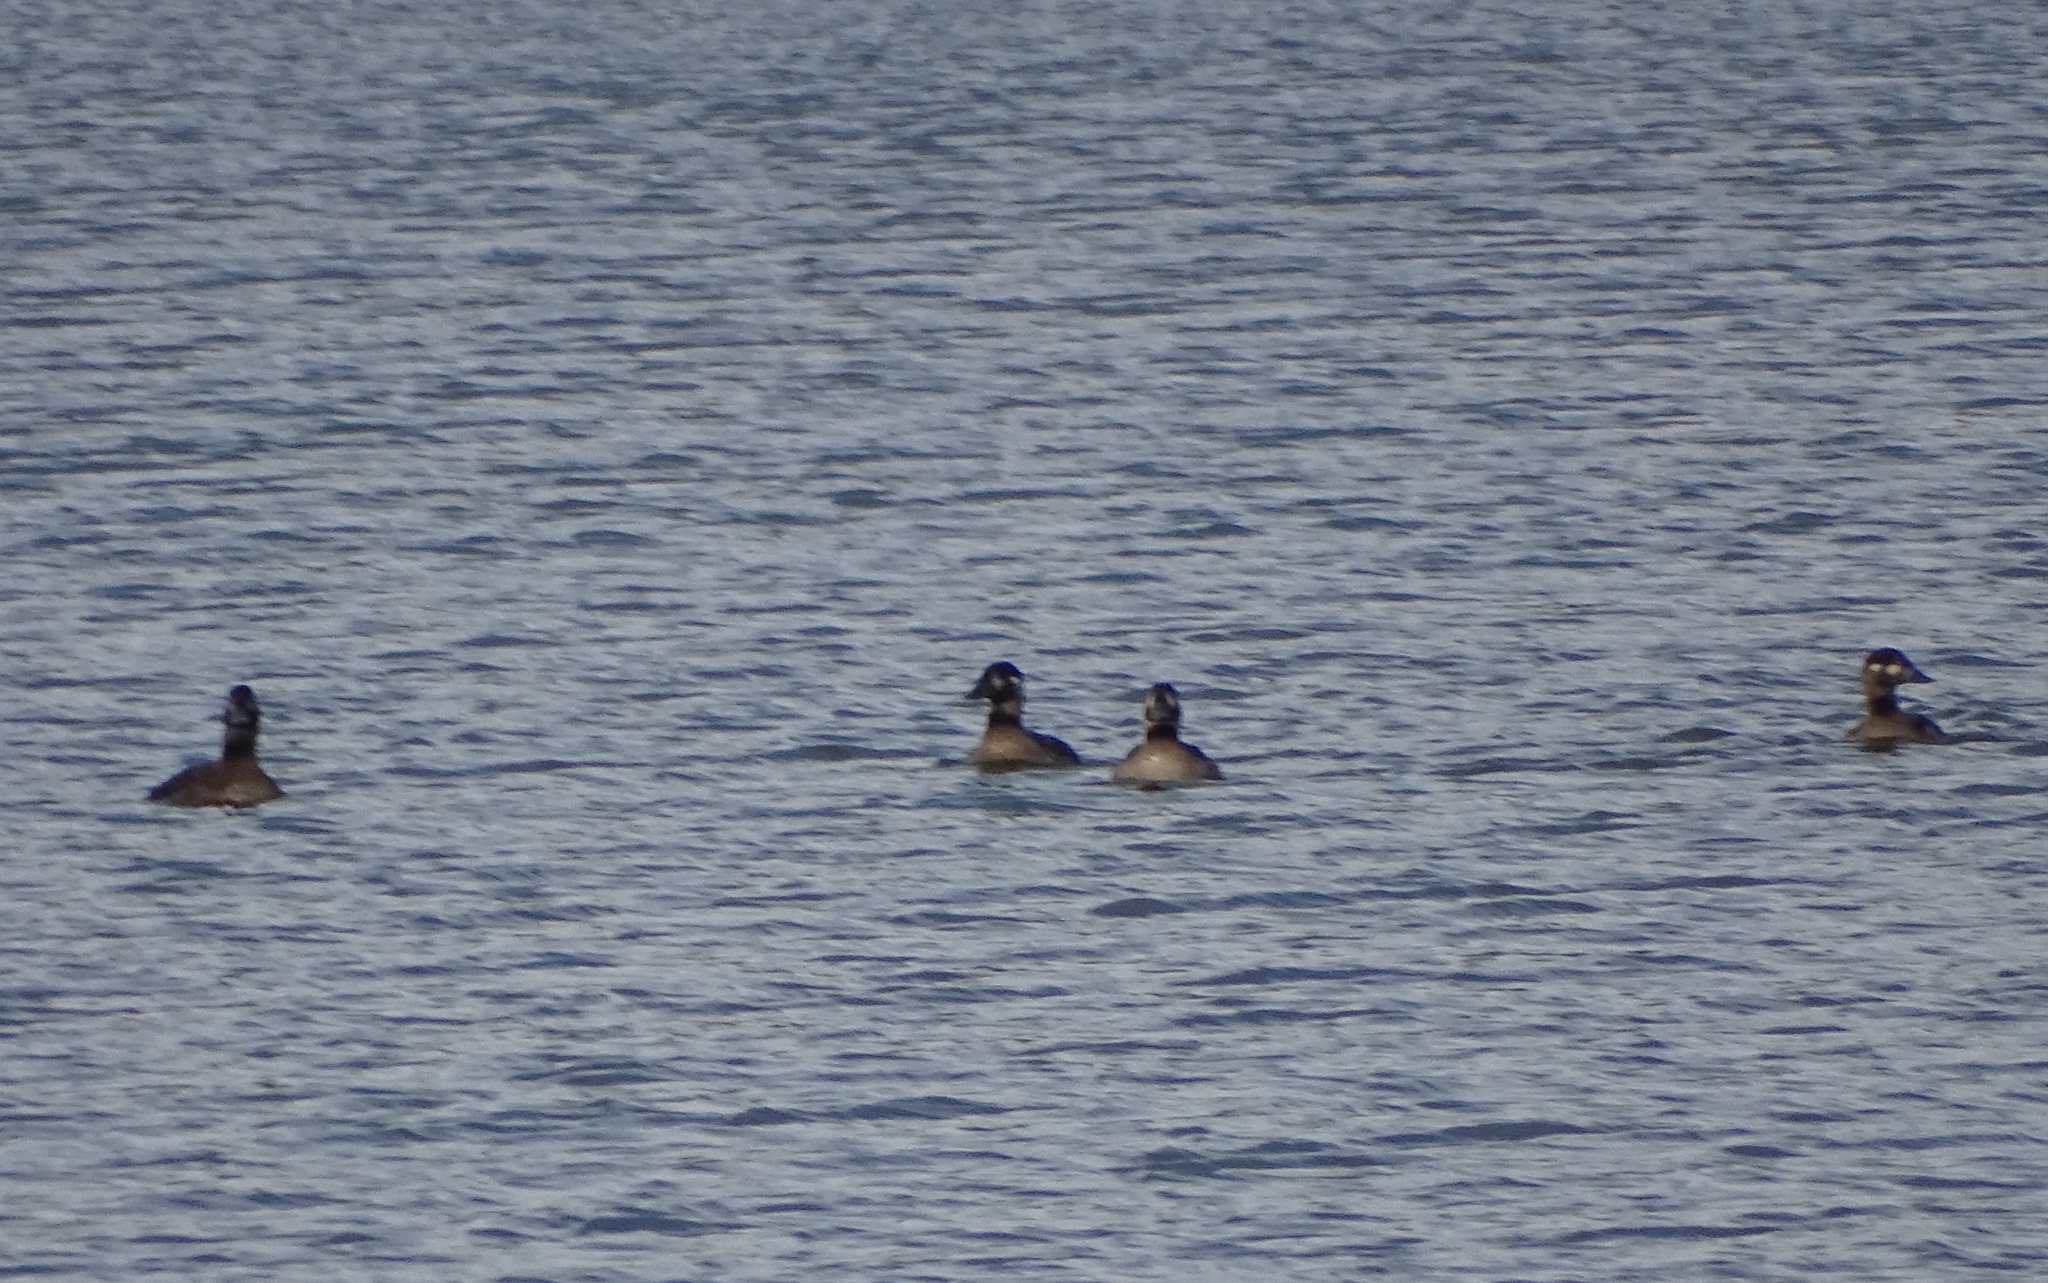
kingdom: Animalia
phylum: Chordata
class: Aves
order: Anseriformes
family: Anatidae
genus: Melanitta
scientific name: Melanitta perspicillata
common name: Surf scoter
